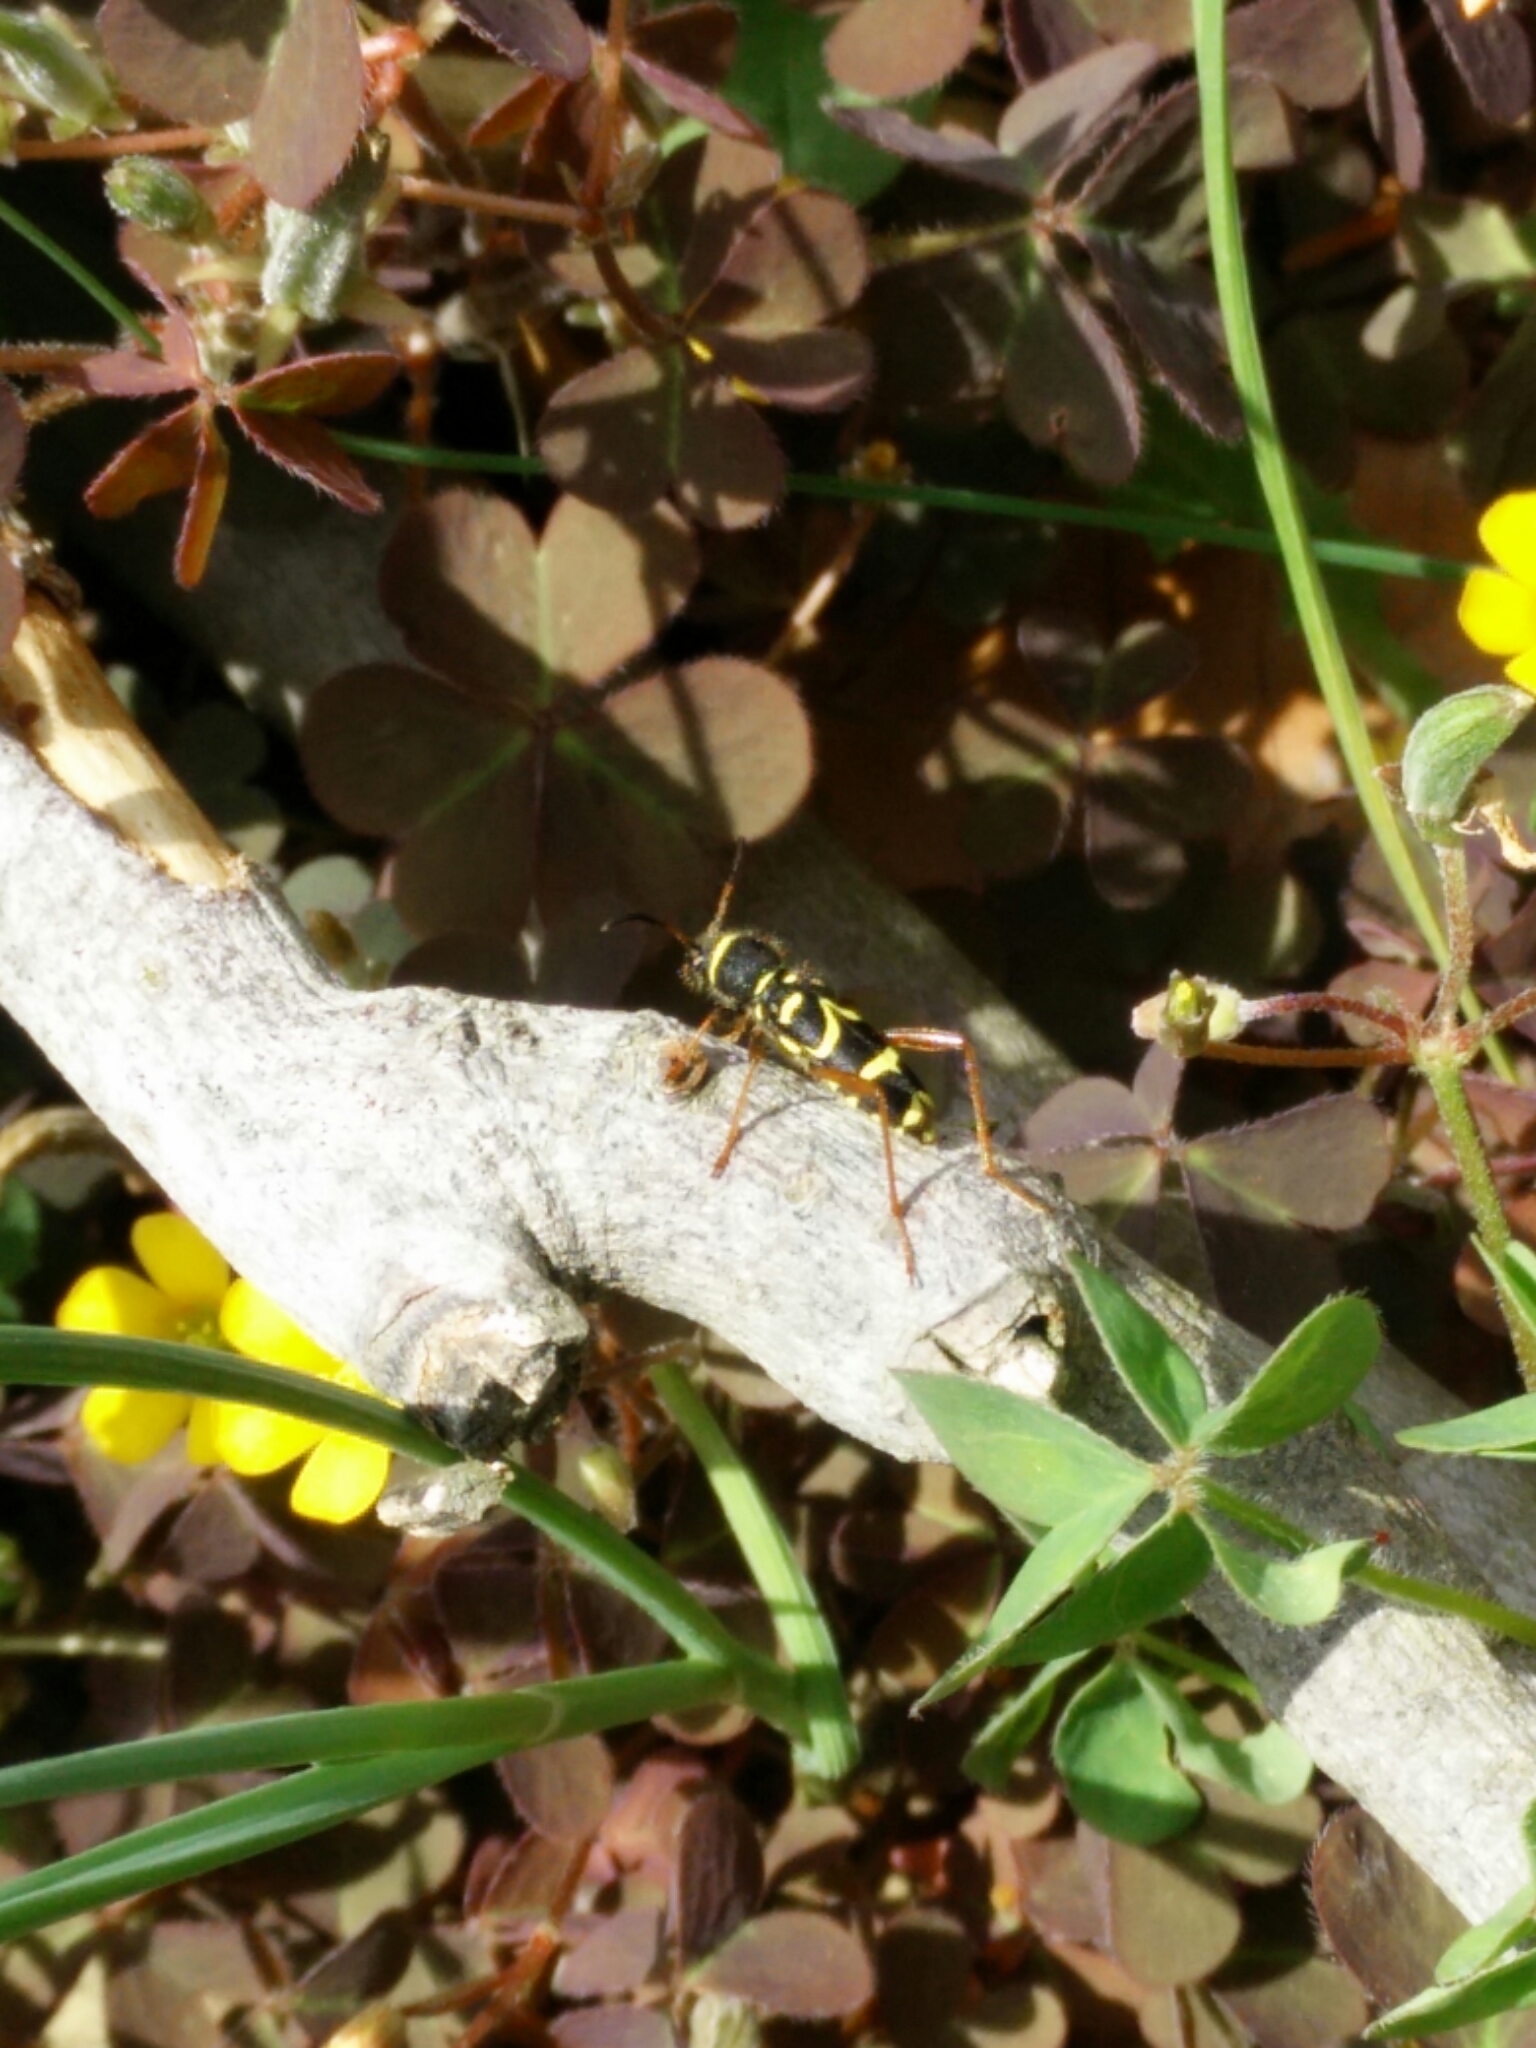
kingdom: Animalia
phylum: Arthropoda
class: Insecta
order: Coleoptera
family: Cerambycidae
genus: Clytus
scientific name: Clytus arietis
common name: Wasp beetle
